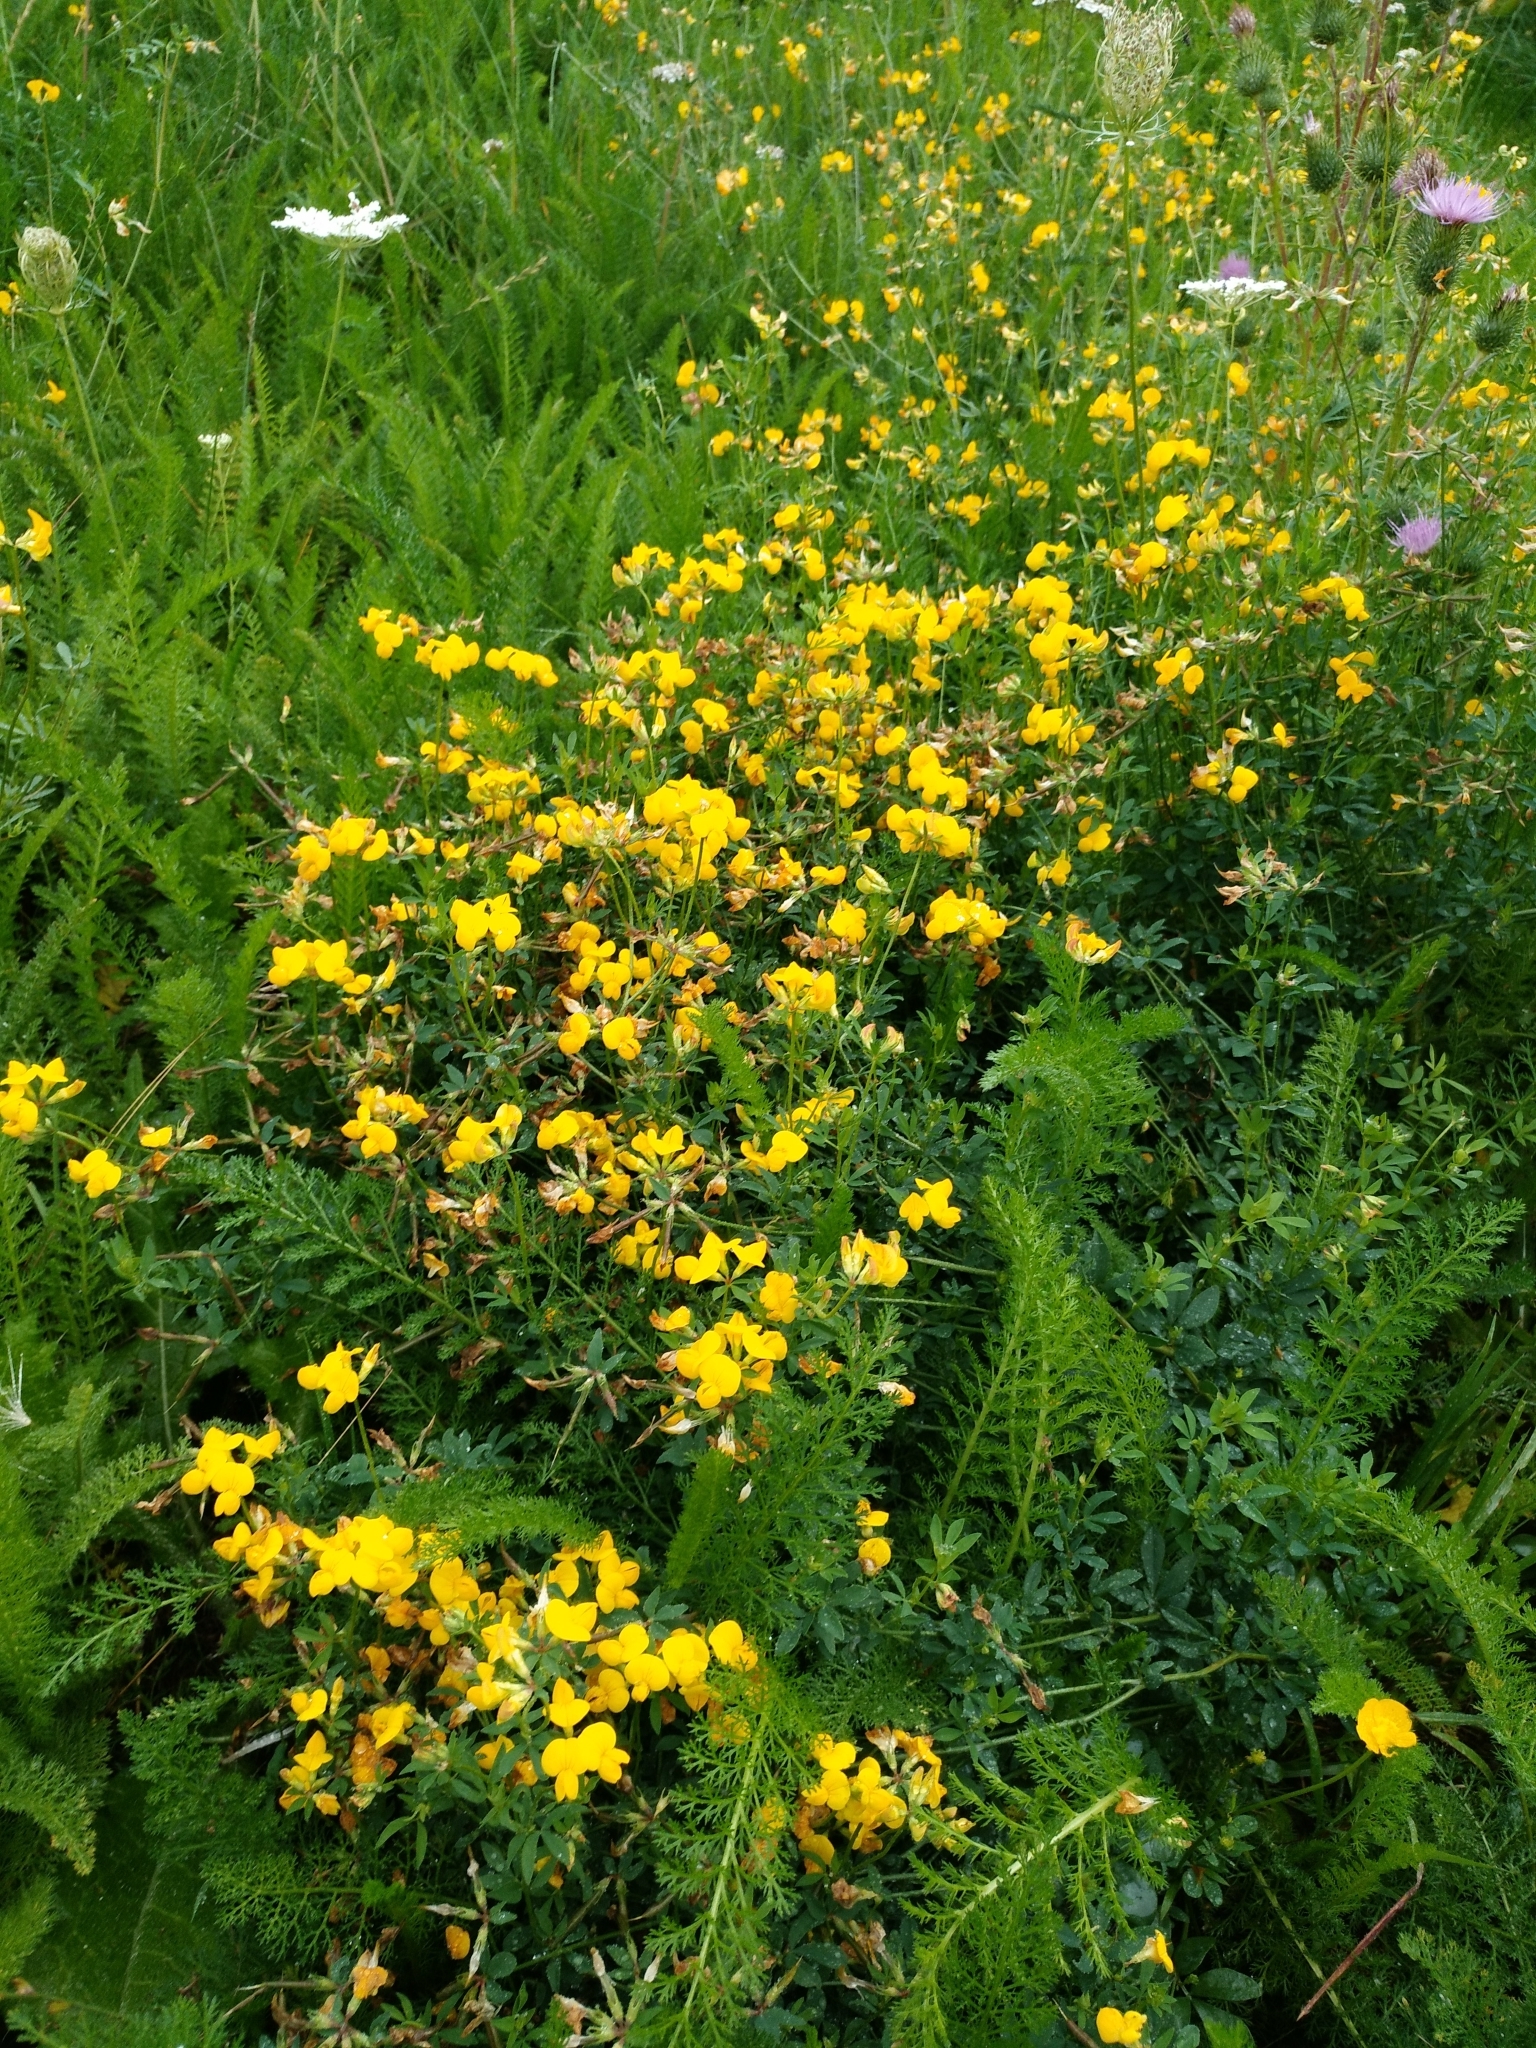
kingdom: Plantae
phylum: Tracheophyta
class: Magnoliopsida
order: Fabales
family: Fabaceae
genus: Lotus
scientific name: Lotus corniculatus
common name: Common bird's-foot-trefoil
